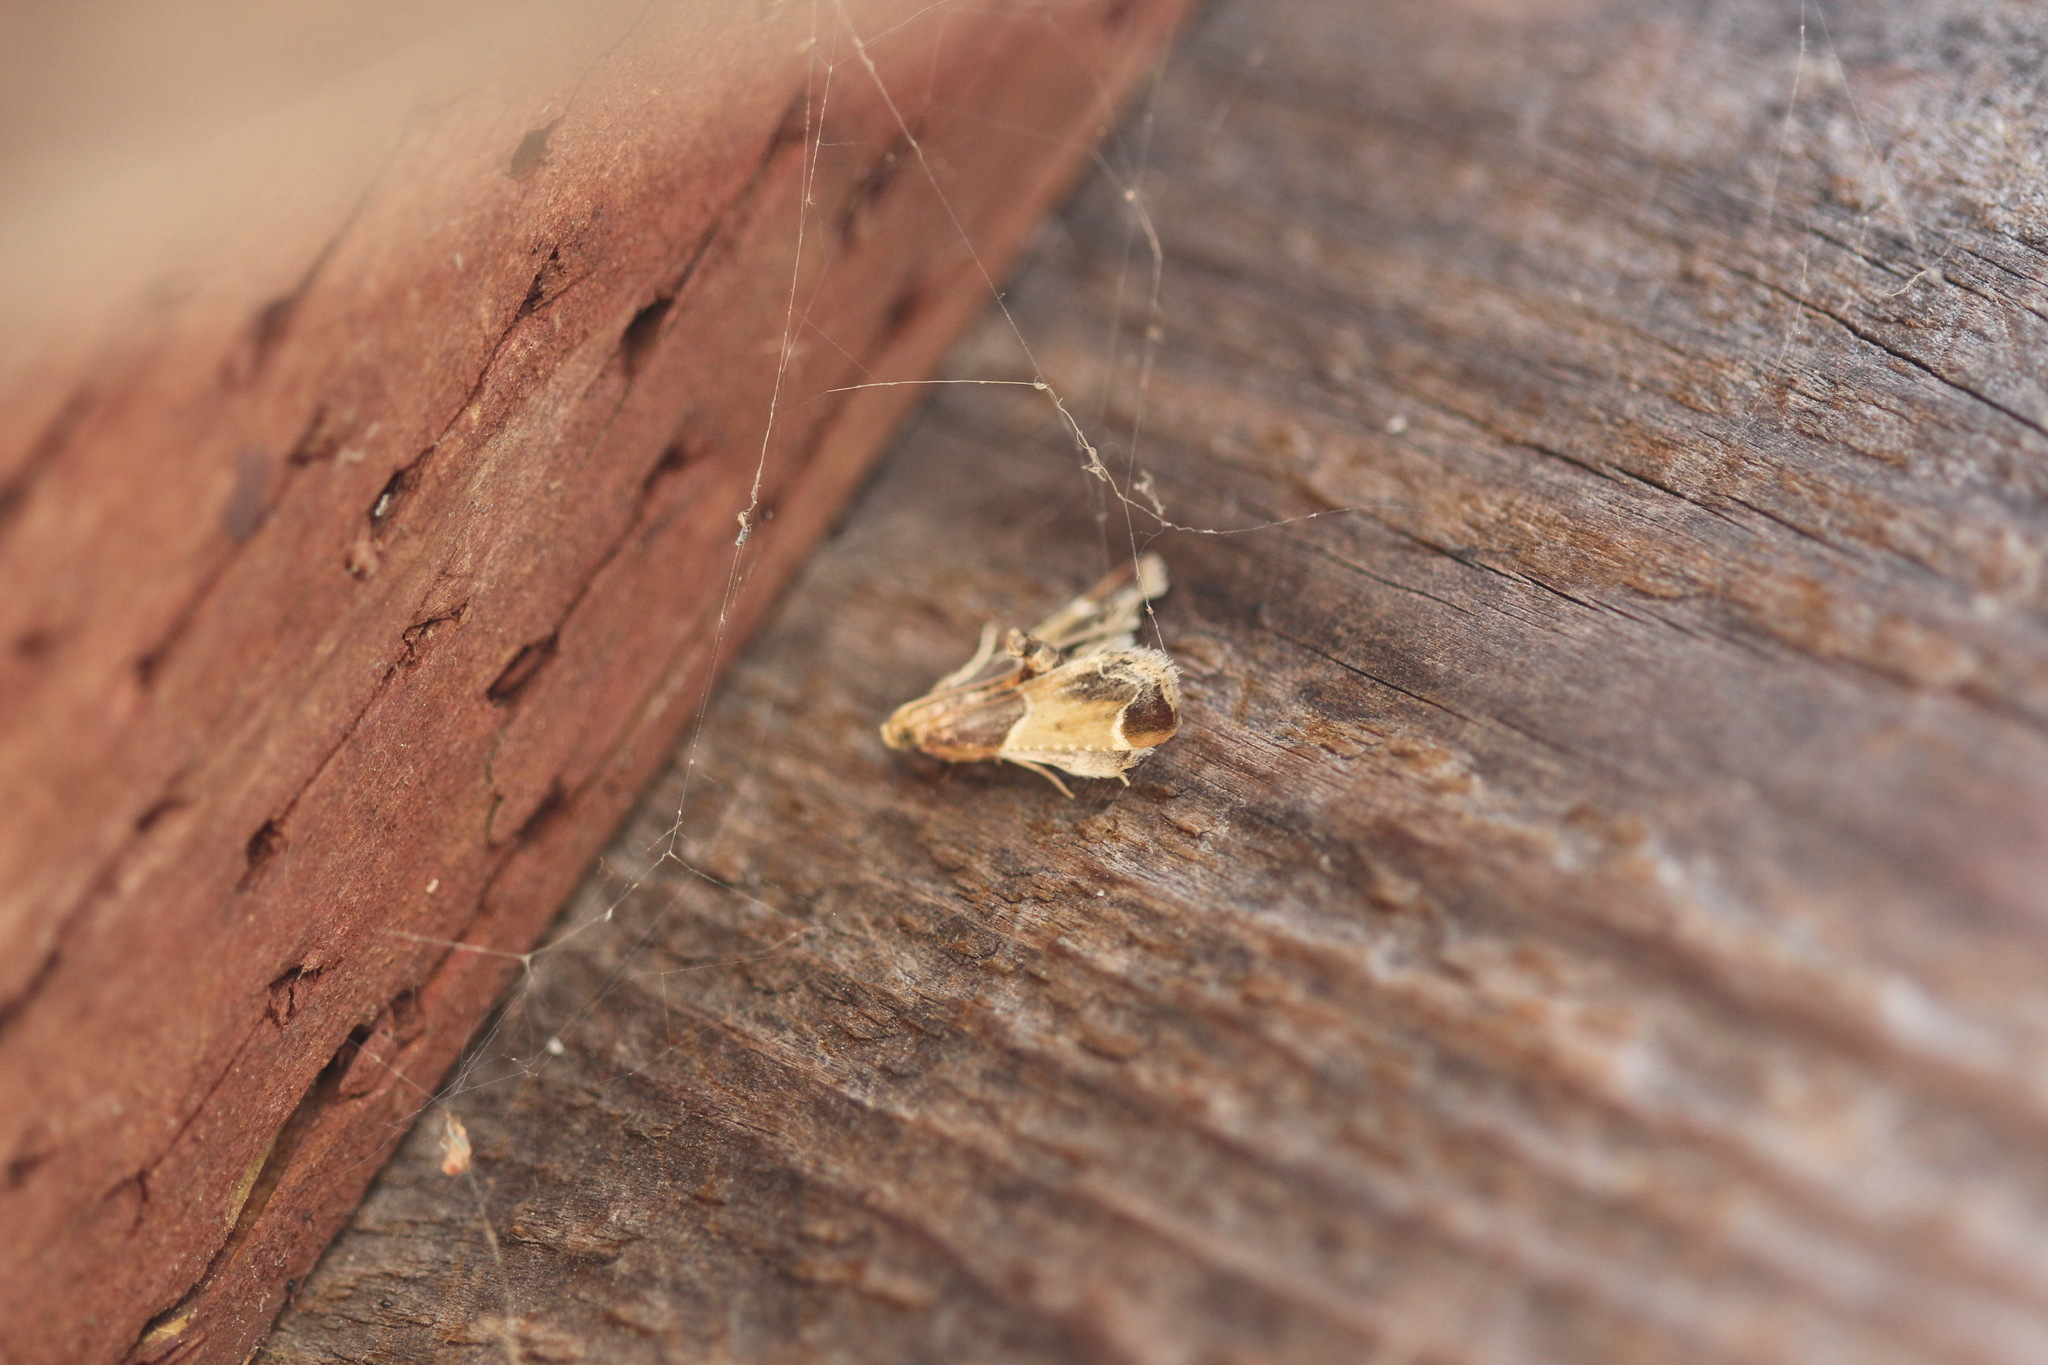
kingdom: Animalia
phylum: Arthropoda
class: Insecta
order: Lepidoptera
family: Pyralidae
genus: Pyralis
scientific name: Pyralis farinalis
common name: Meal moth
